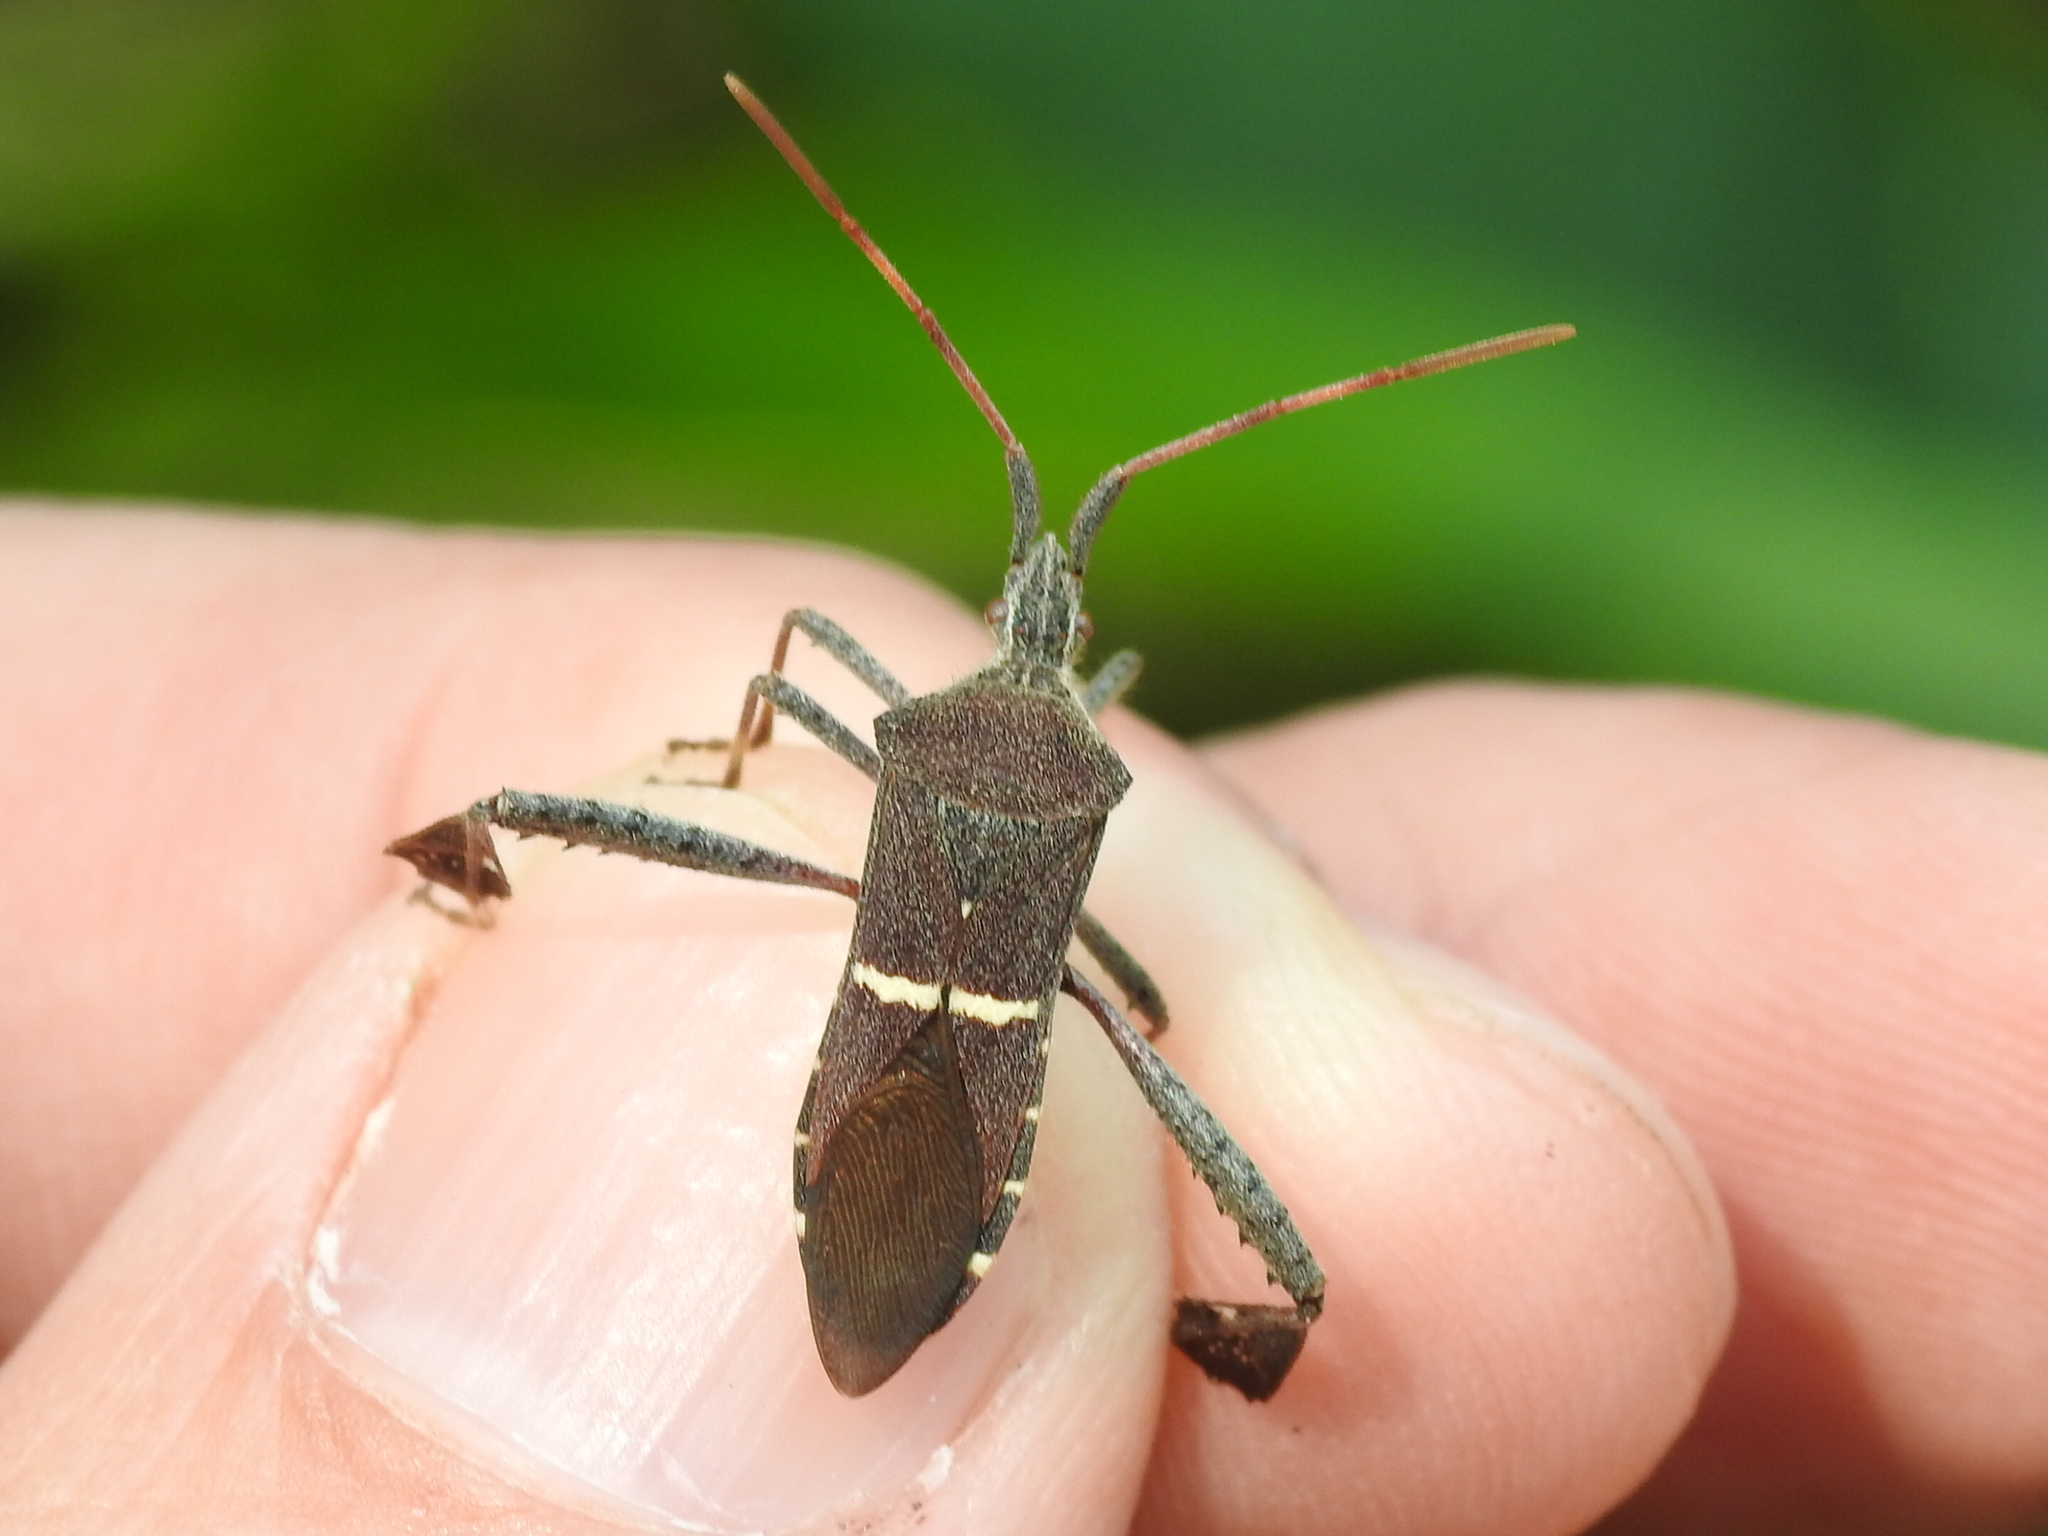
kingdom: Animalia
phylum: Arthropoda
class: Insecta
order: Hemiptera
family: Coreidae
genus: Leptoglossus
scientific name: Leptoglossus phyllopus
